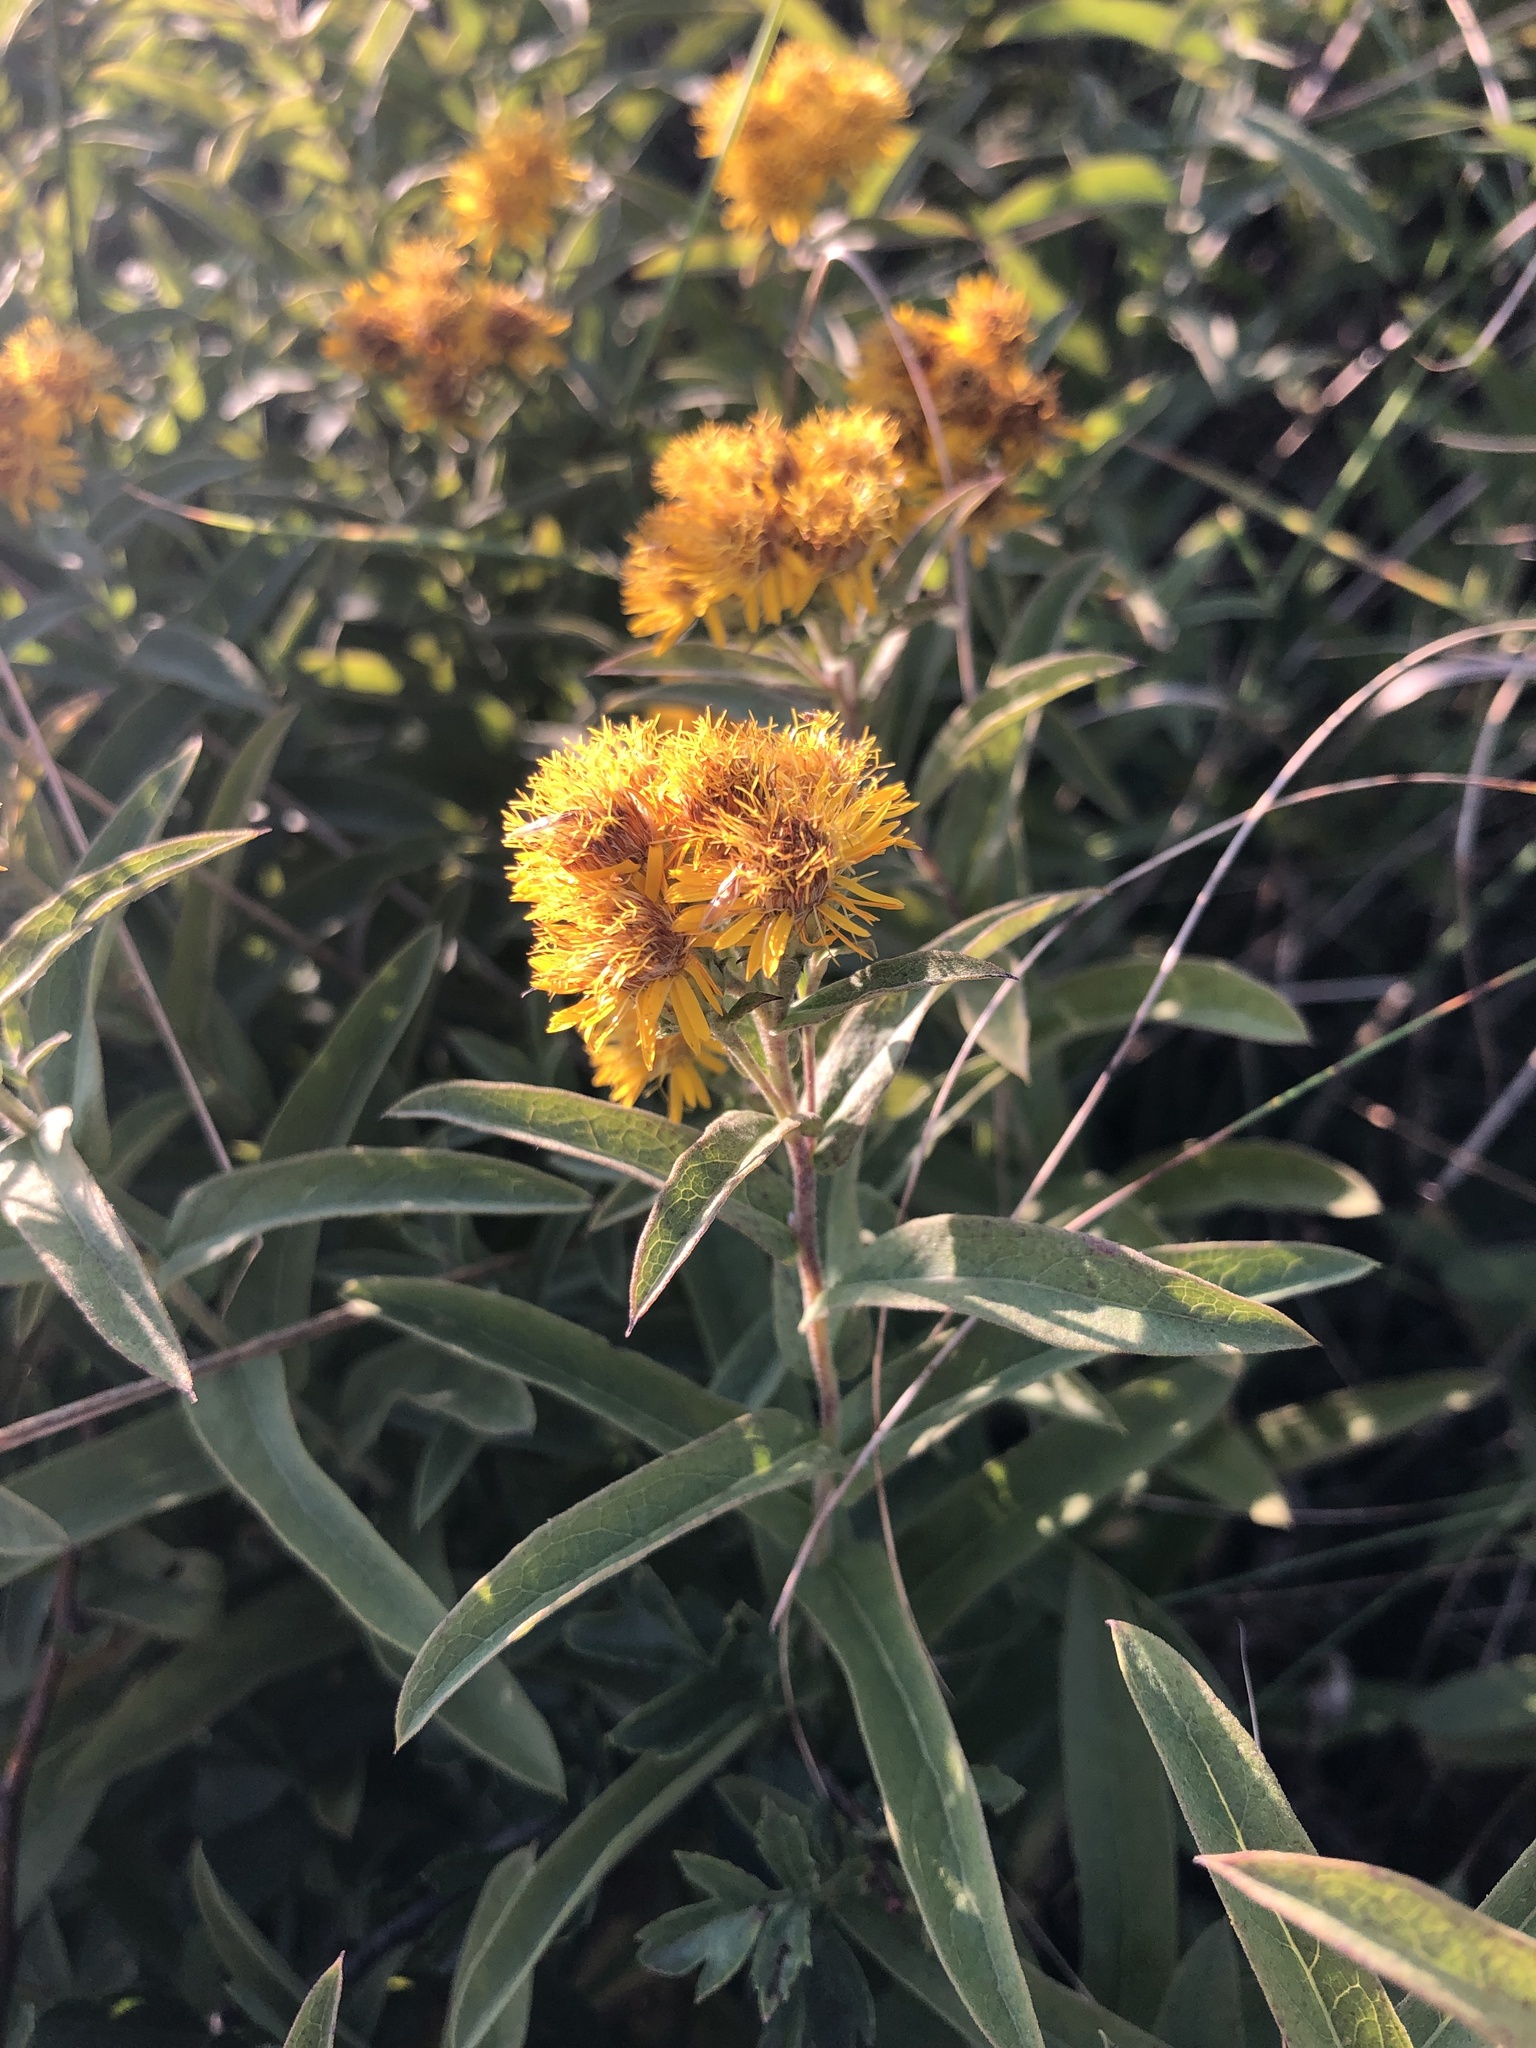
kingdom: Plantae
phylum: Tracheophyta
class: Magnoliopsida
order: Asterales
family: Asteraceae
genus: Pentanema
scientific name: Pentanema germanicum
